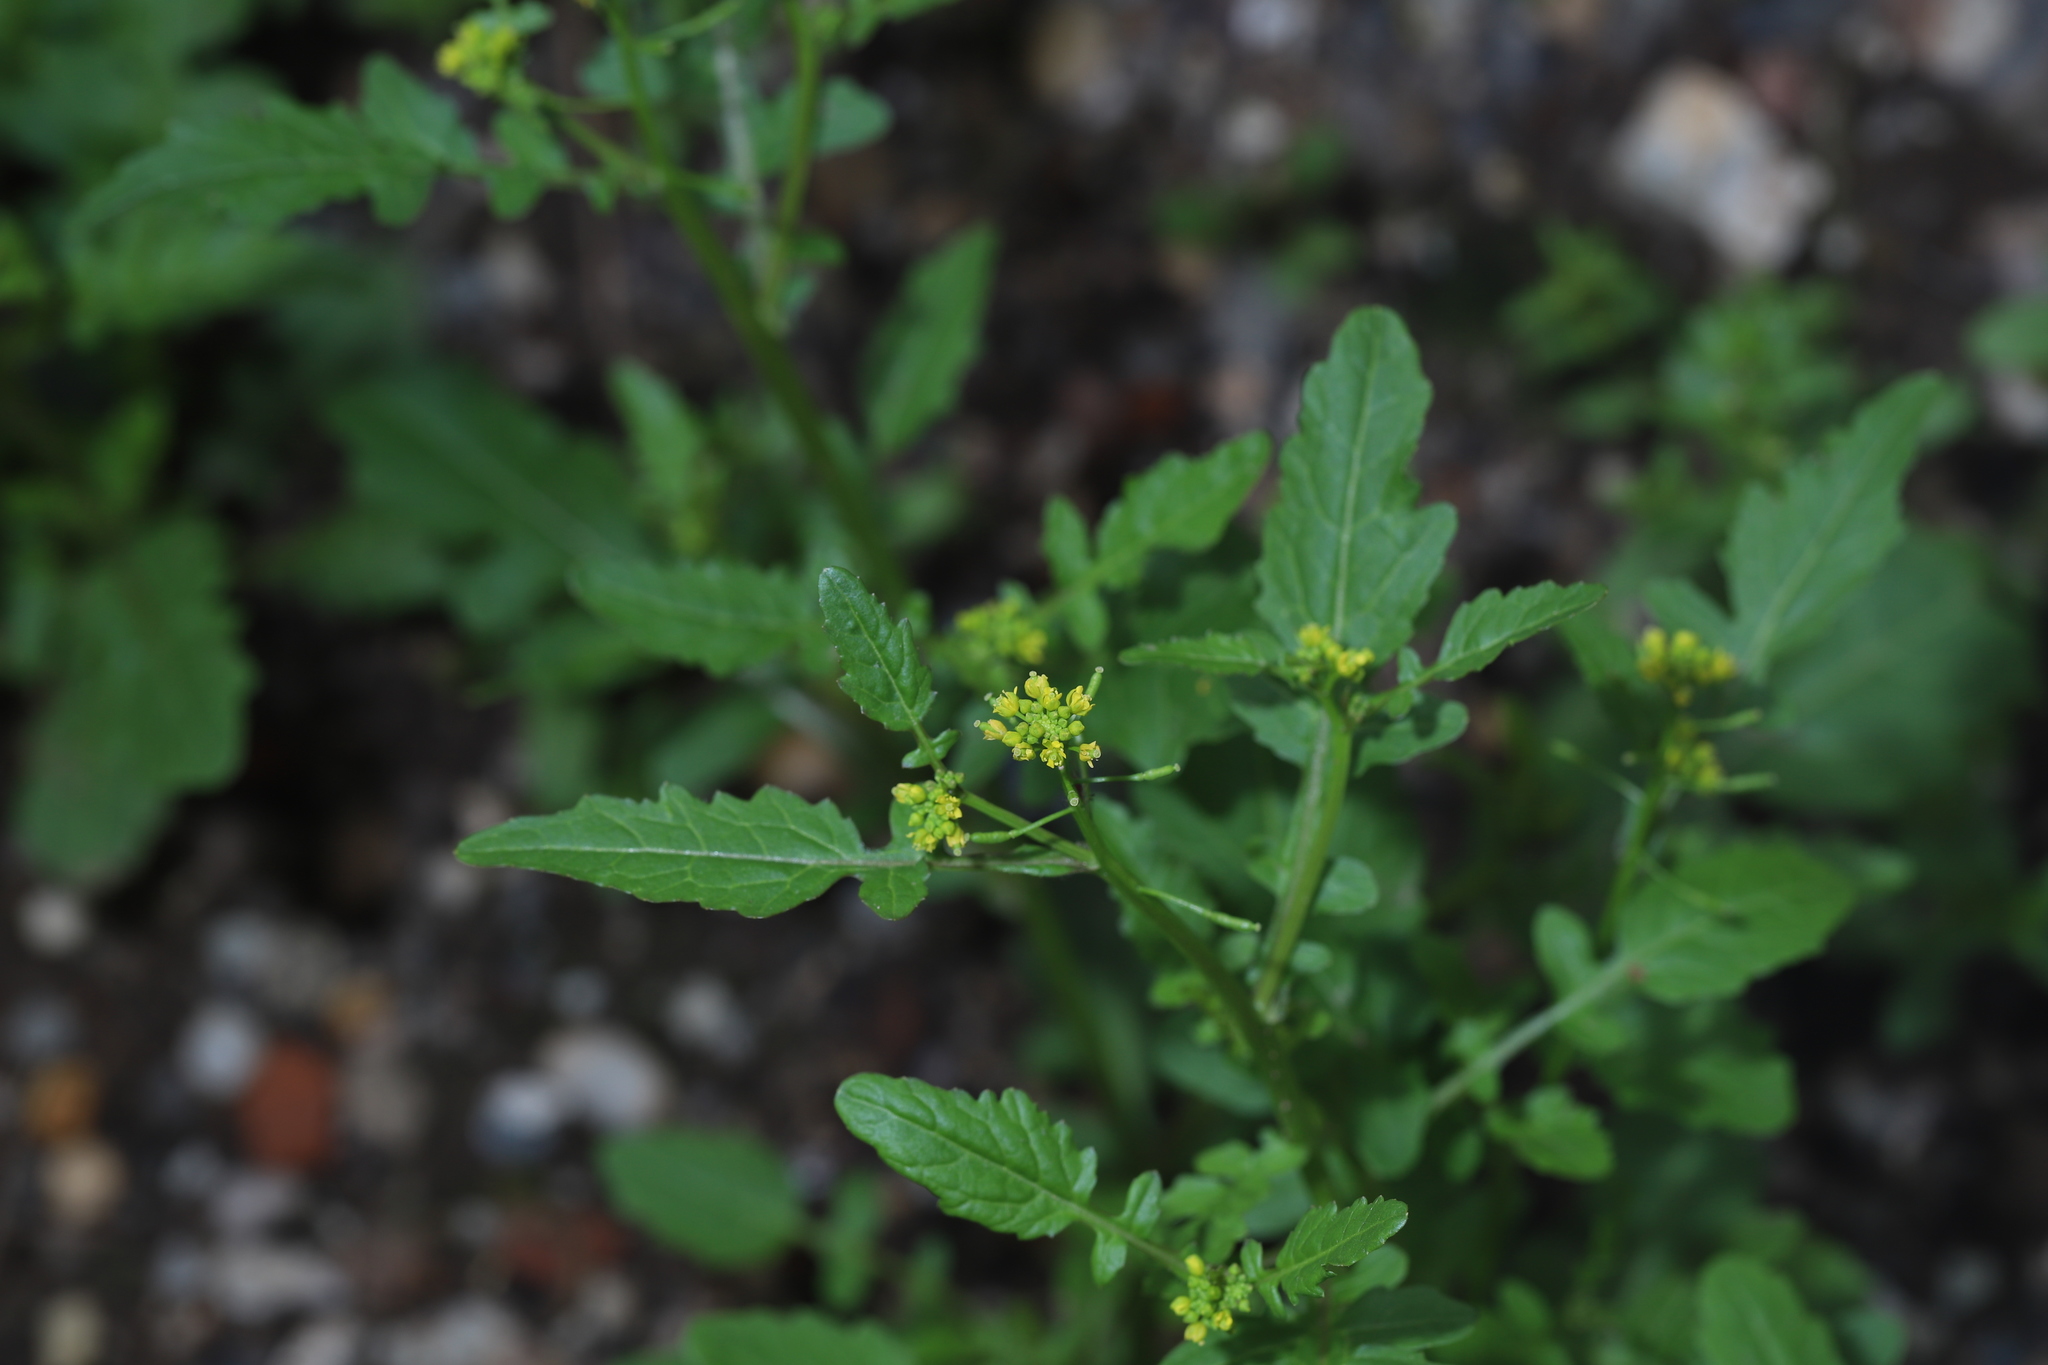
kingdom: Plantae
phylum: Tracheophyta
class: Magnoliopsida
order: Brassicales
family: Brassicaceae
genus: Rorippa
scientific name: Rorippa palustris
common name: Marsh yellow-cress
